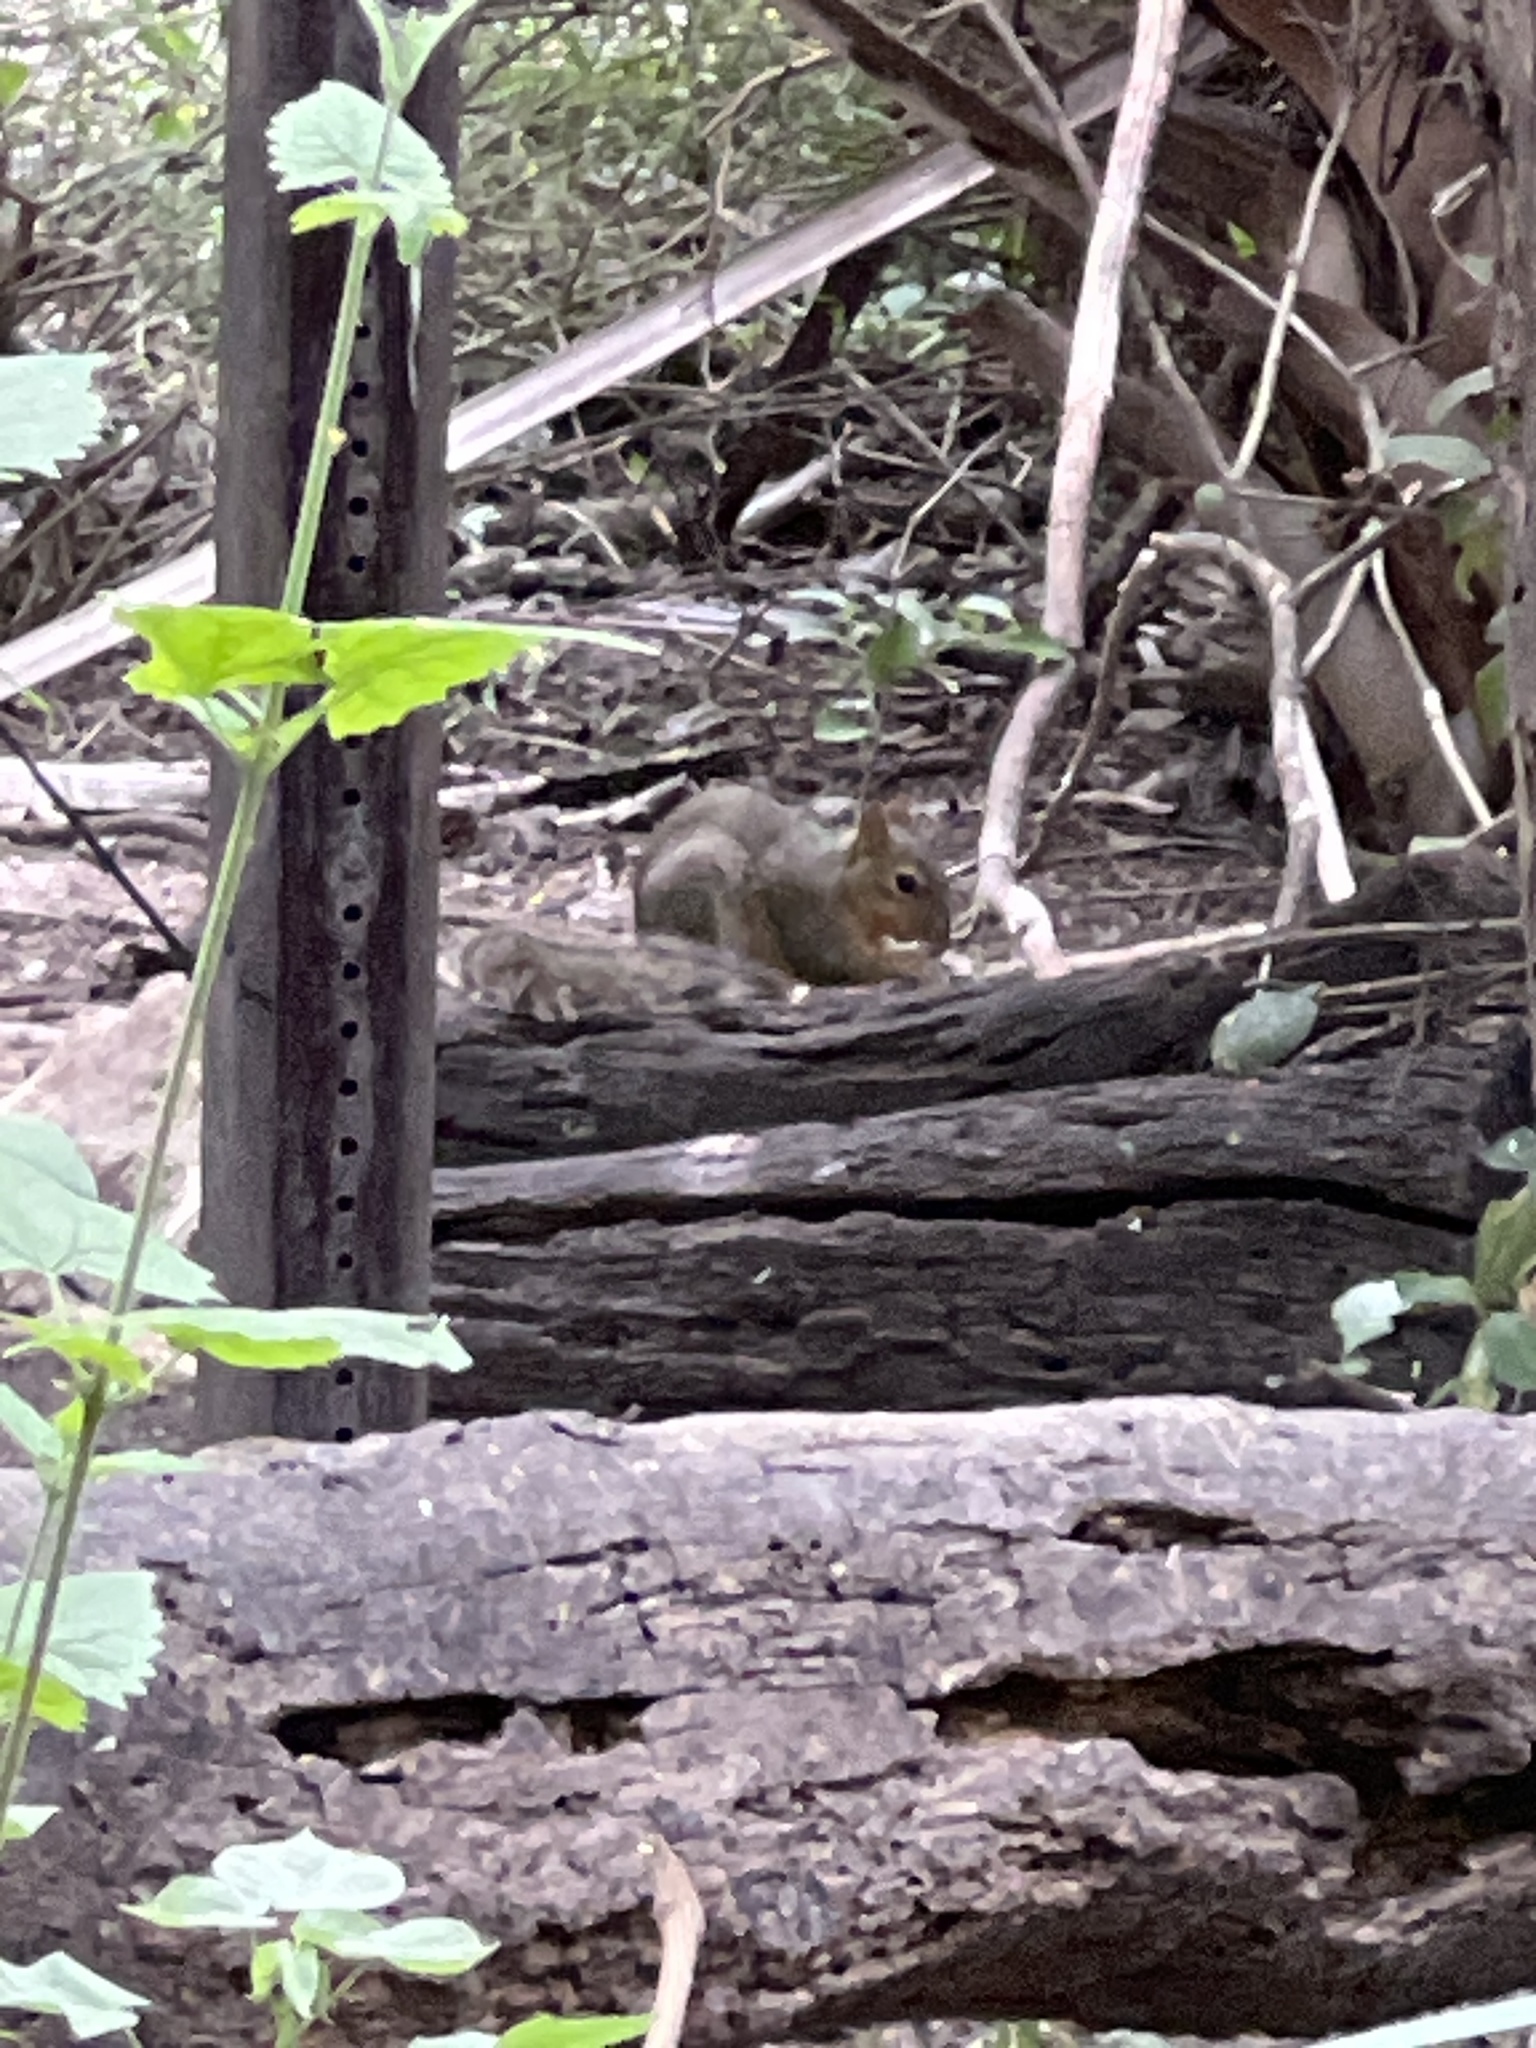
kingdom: Animalia
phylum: Chordata
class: Mammalia
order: Rodentia
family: Sciuridae
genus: Sciurus
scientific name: Sciurus niger
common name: Fox squirrel
